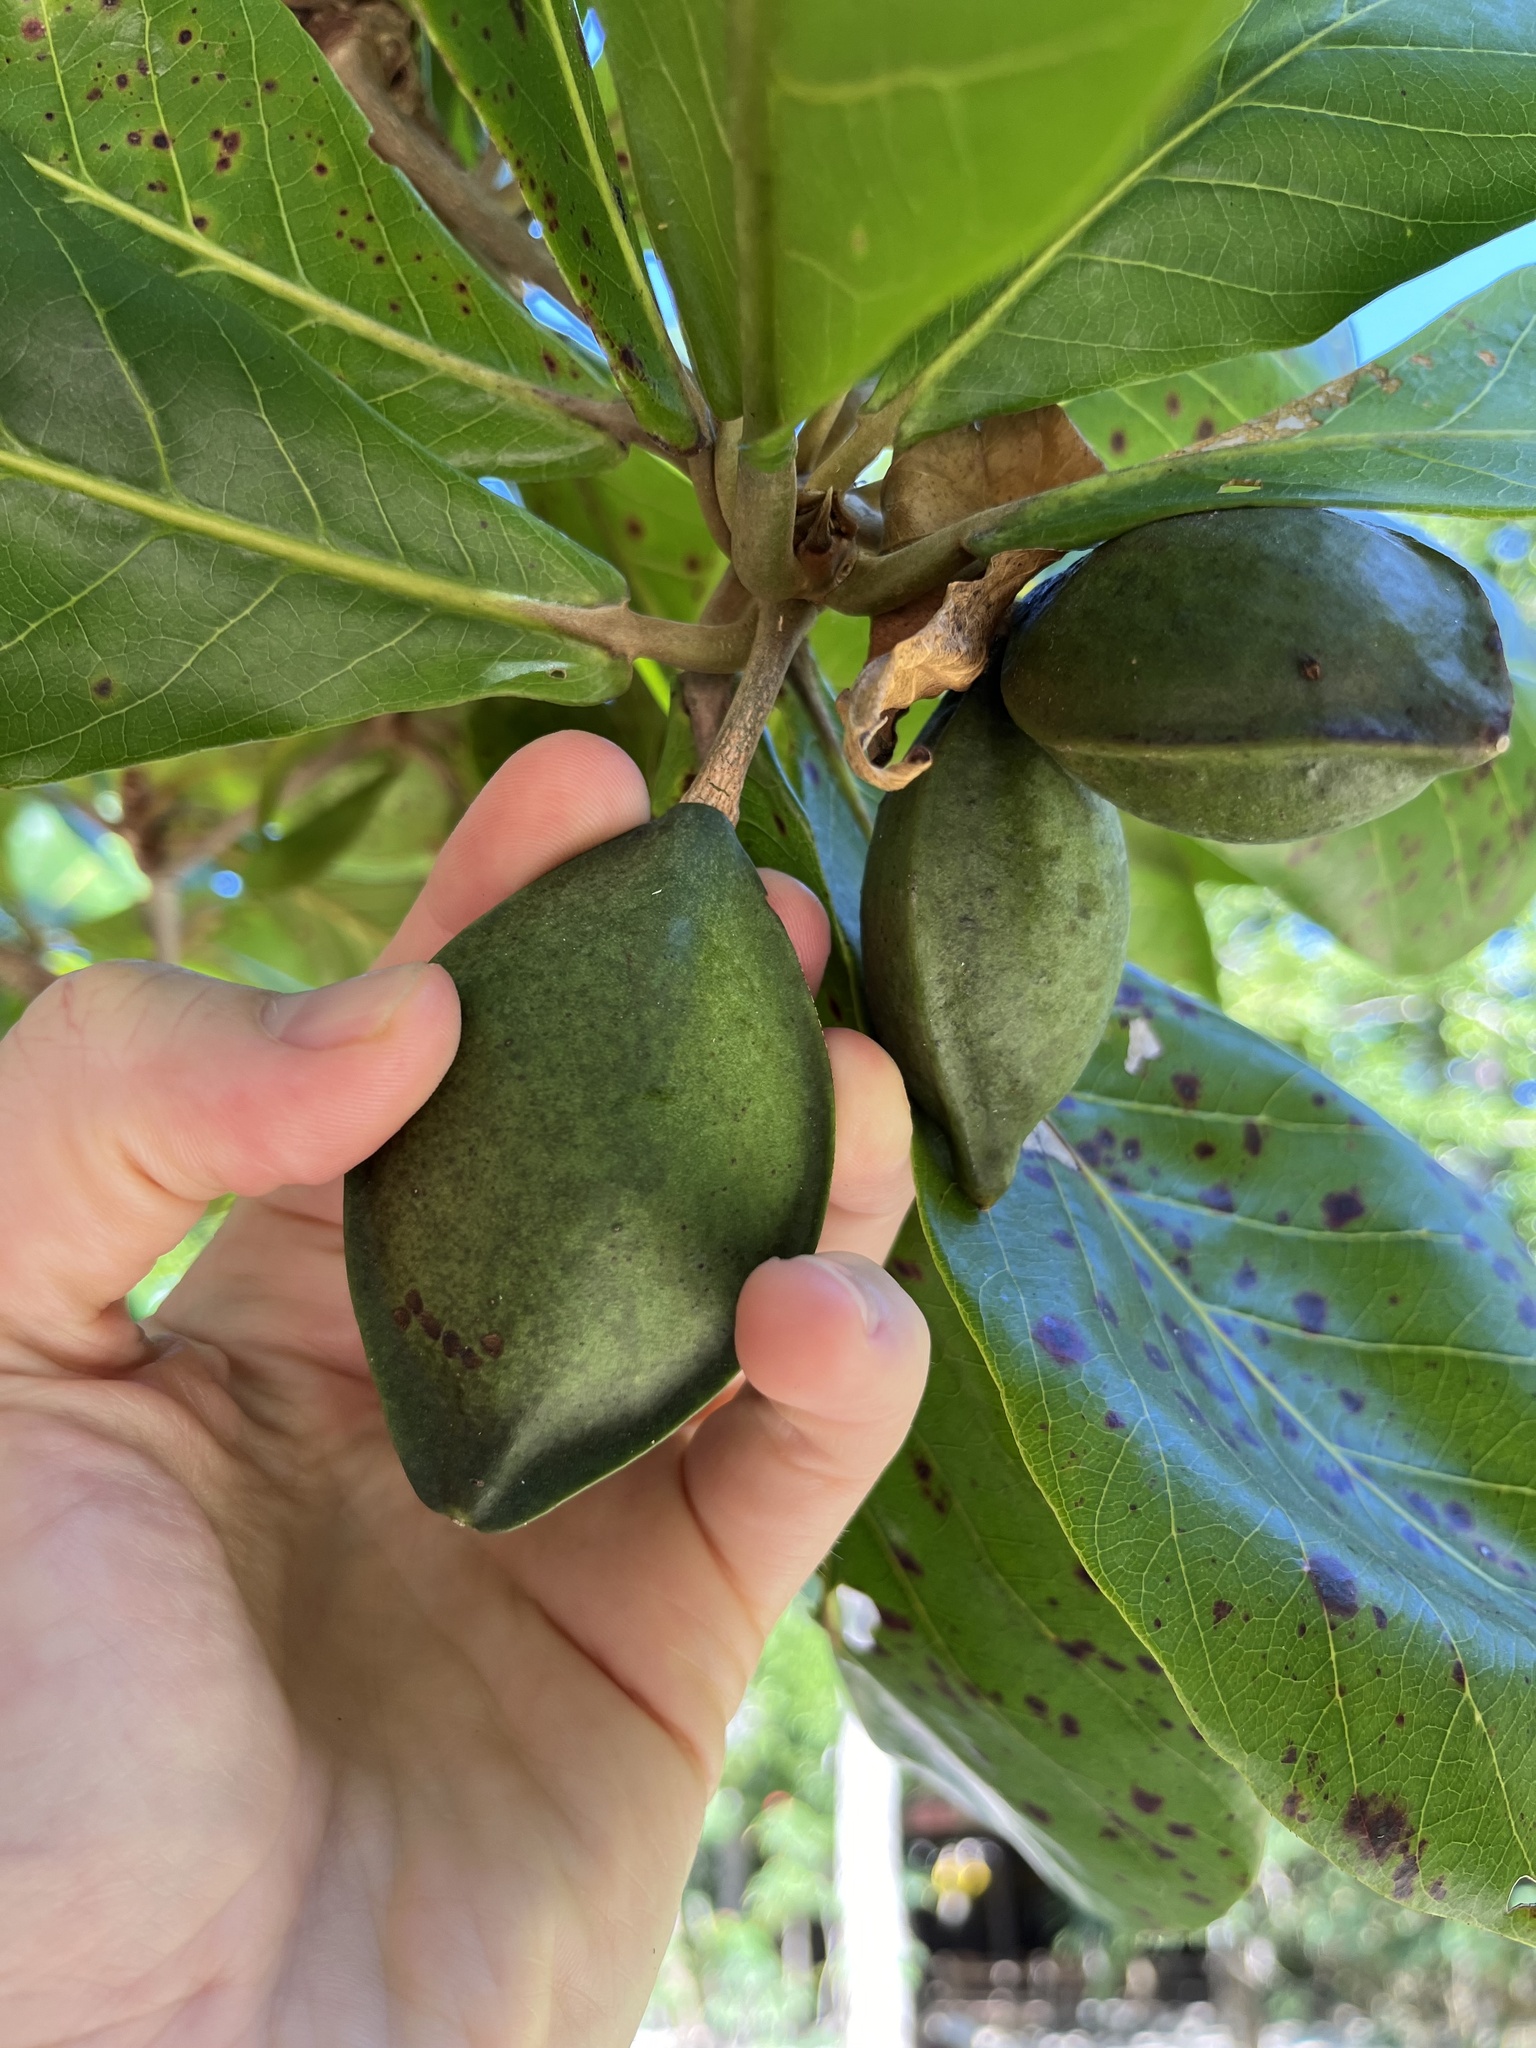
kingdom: Plantae
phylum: Tracheophyta
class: Magnoliopsida
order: Myrtales
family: Combretaceae
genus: Terminalia
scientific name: Terminalia catappa
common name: Tropical almond
